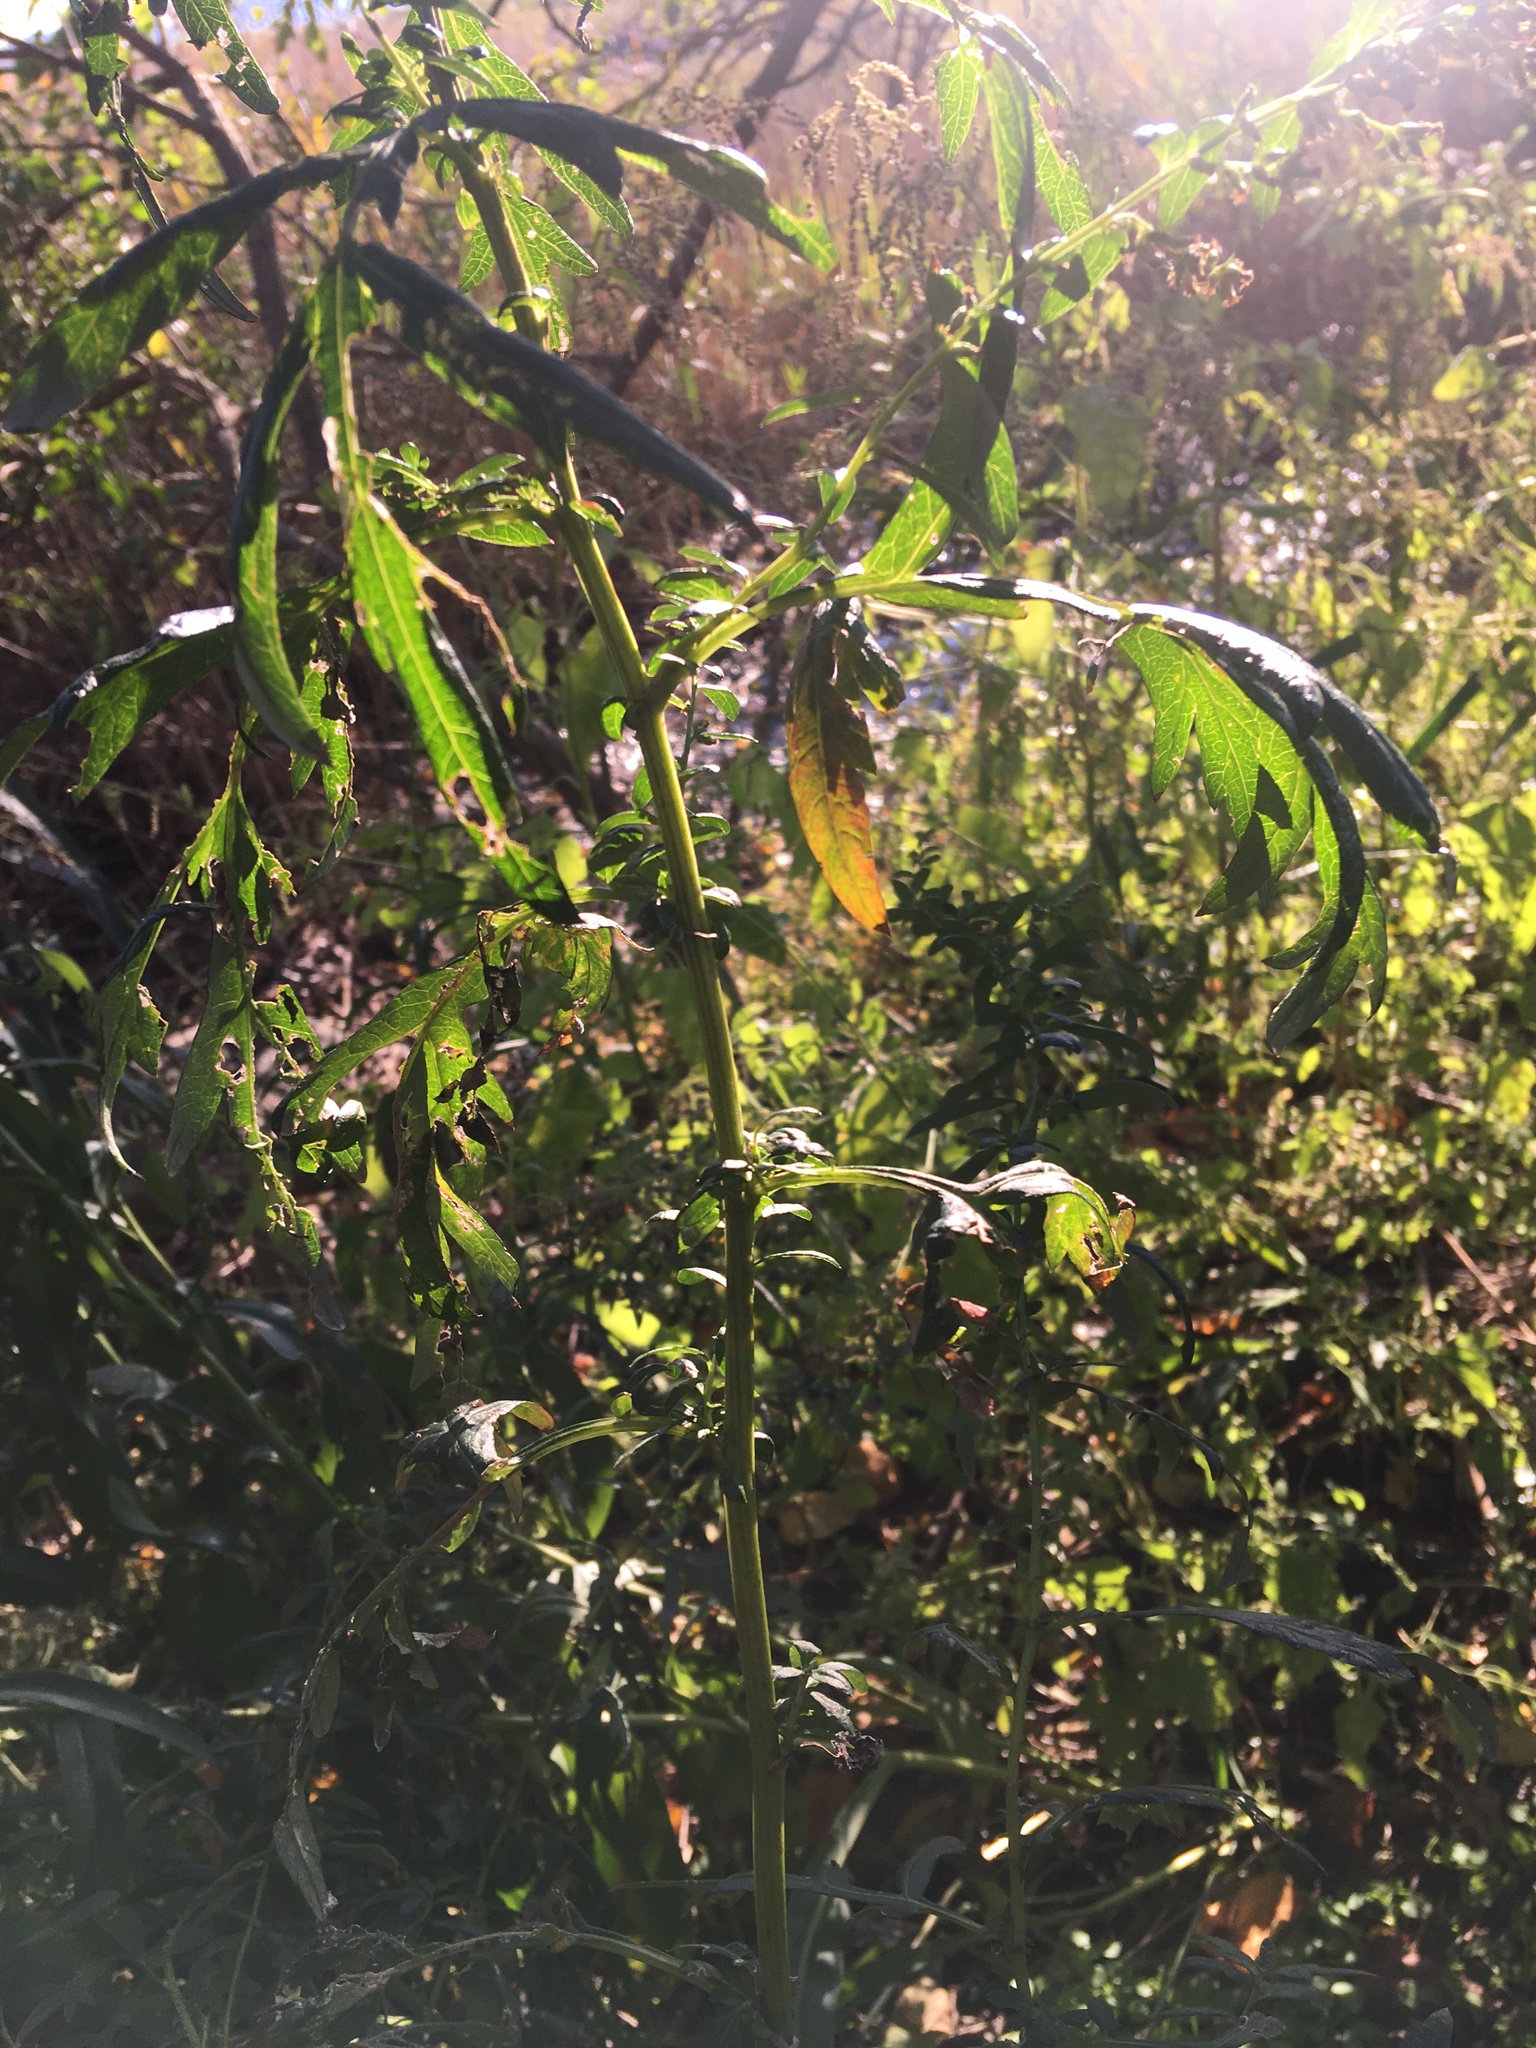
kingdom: Plantae
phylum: Tracheophyta
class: Magnoliopsida
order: Asterales
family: Asteraceae
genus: Artemisia
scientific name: Artemisia vulgaris
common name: Mugwort
